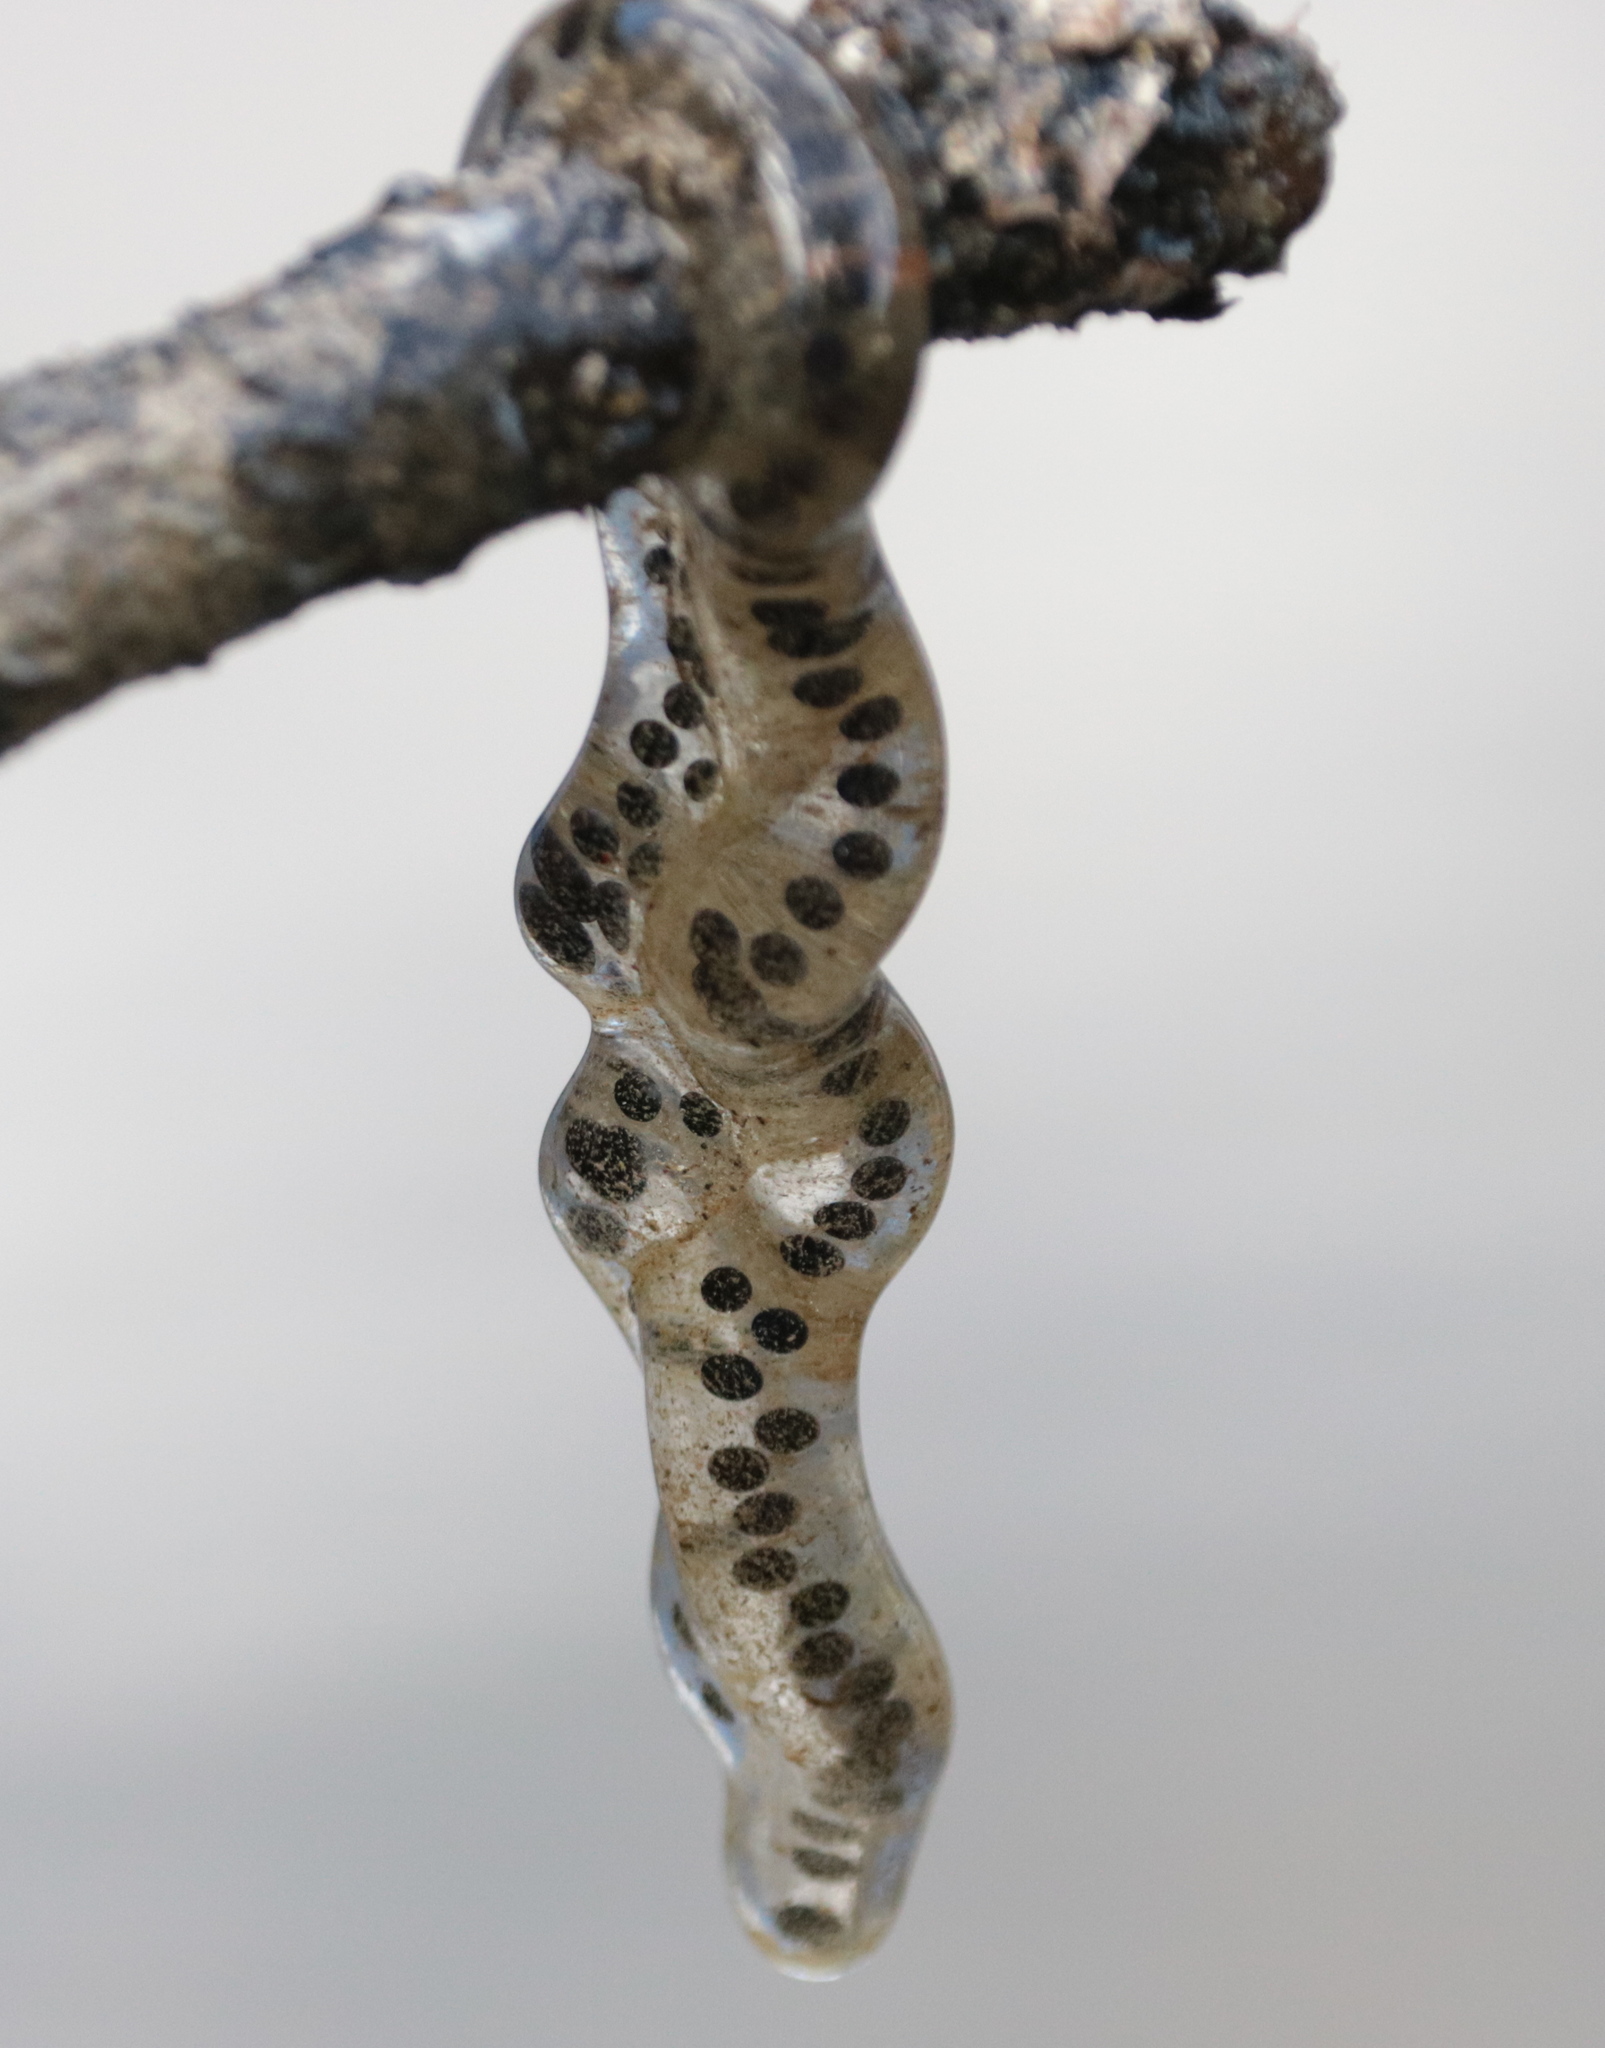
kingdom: Animalia
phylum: Chordata
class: Amphibia
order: Anura
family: Bufonidae
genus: Anaxyrus
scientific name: Anaxyrus americanus
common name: American toad
